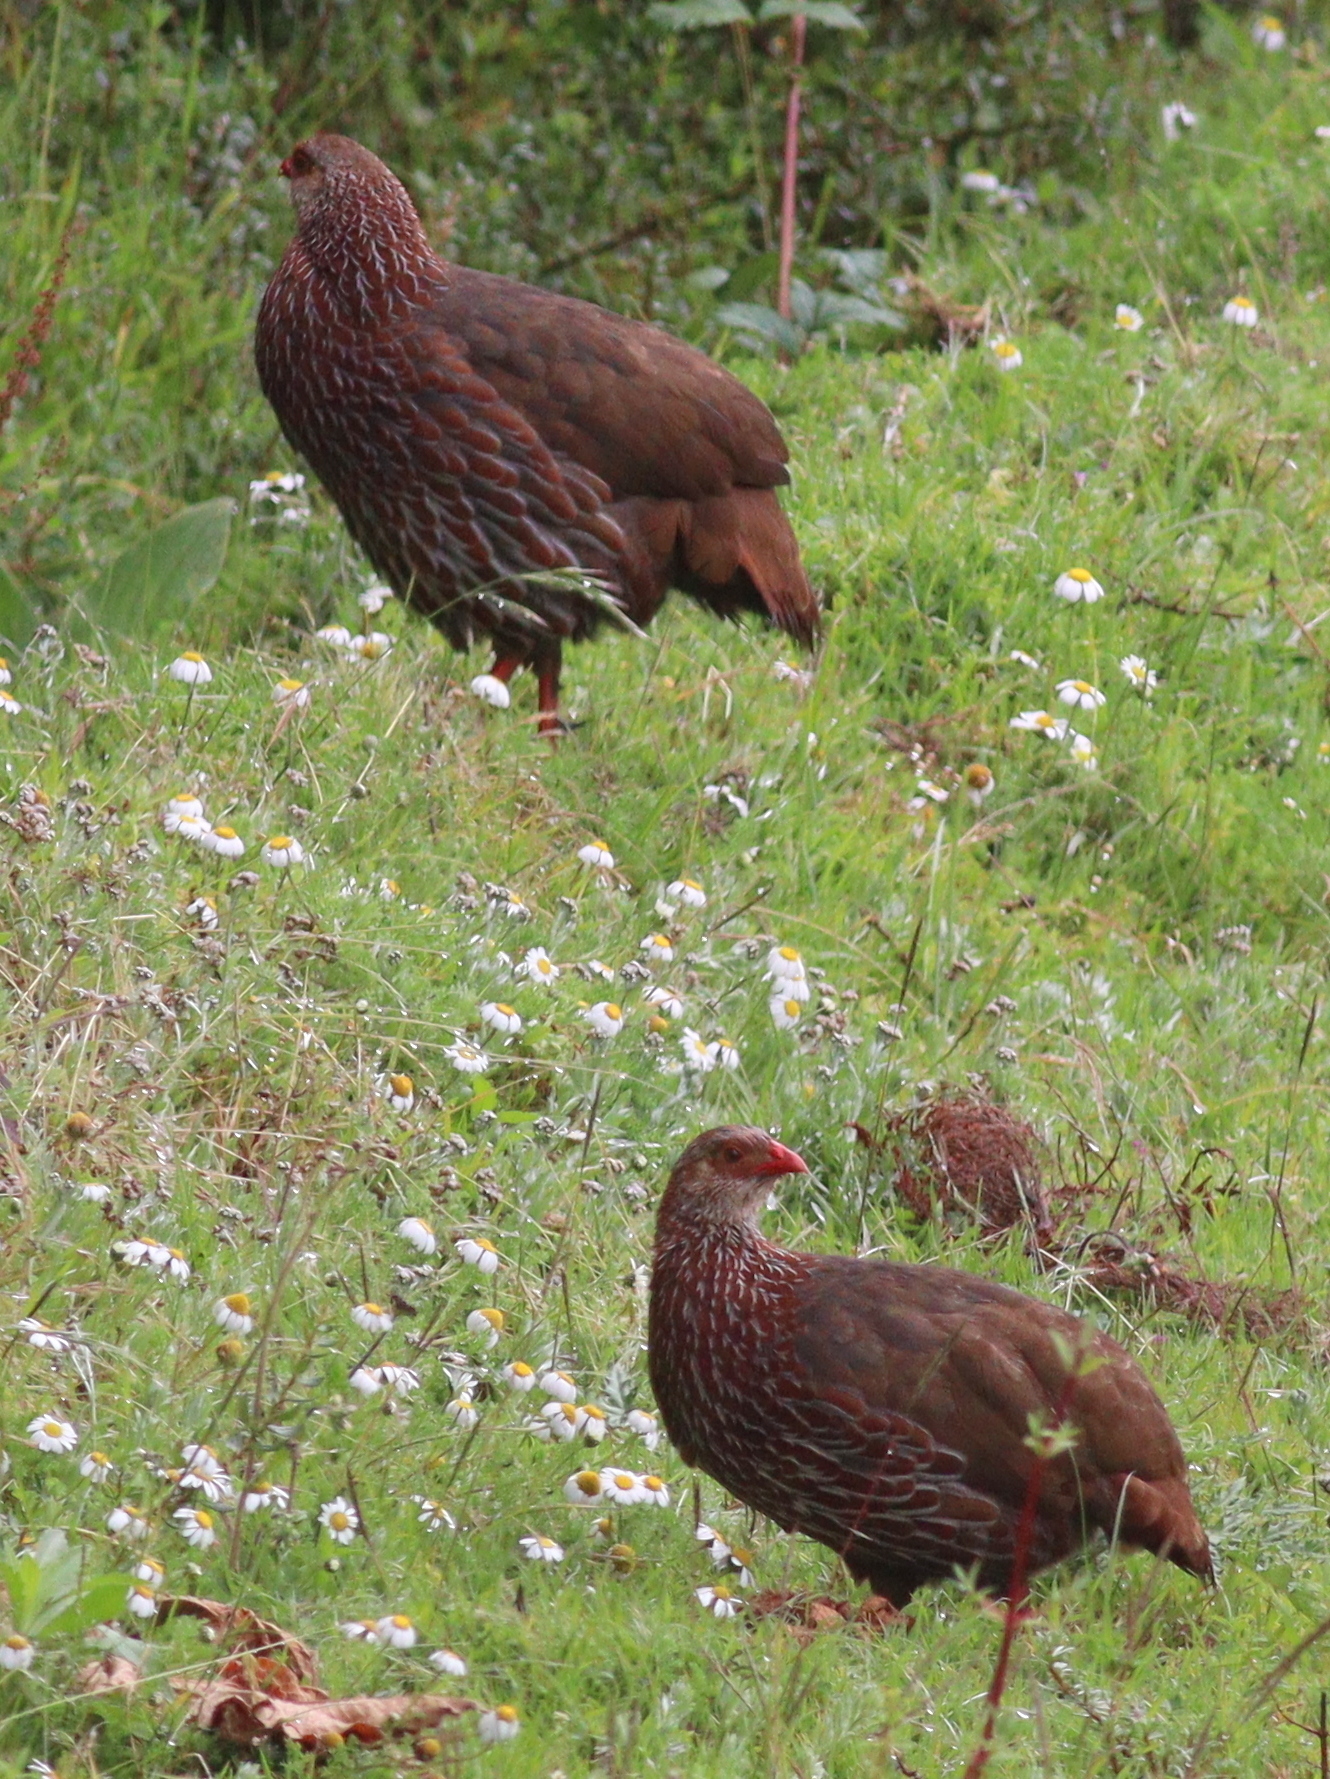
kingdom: Animalia
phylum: Chordata
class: Aves
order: Galliformes
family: Phasianidae
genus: Pternistis
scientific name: Pternistis jacksoni
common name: Jackson's francolin
